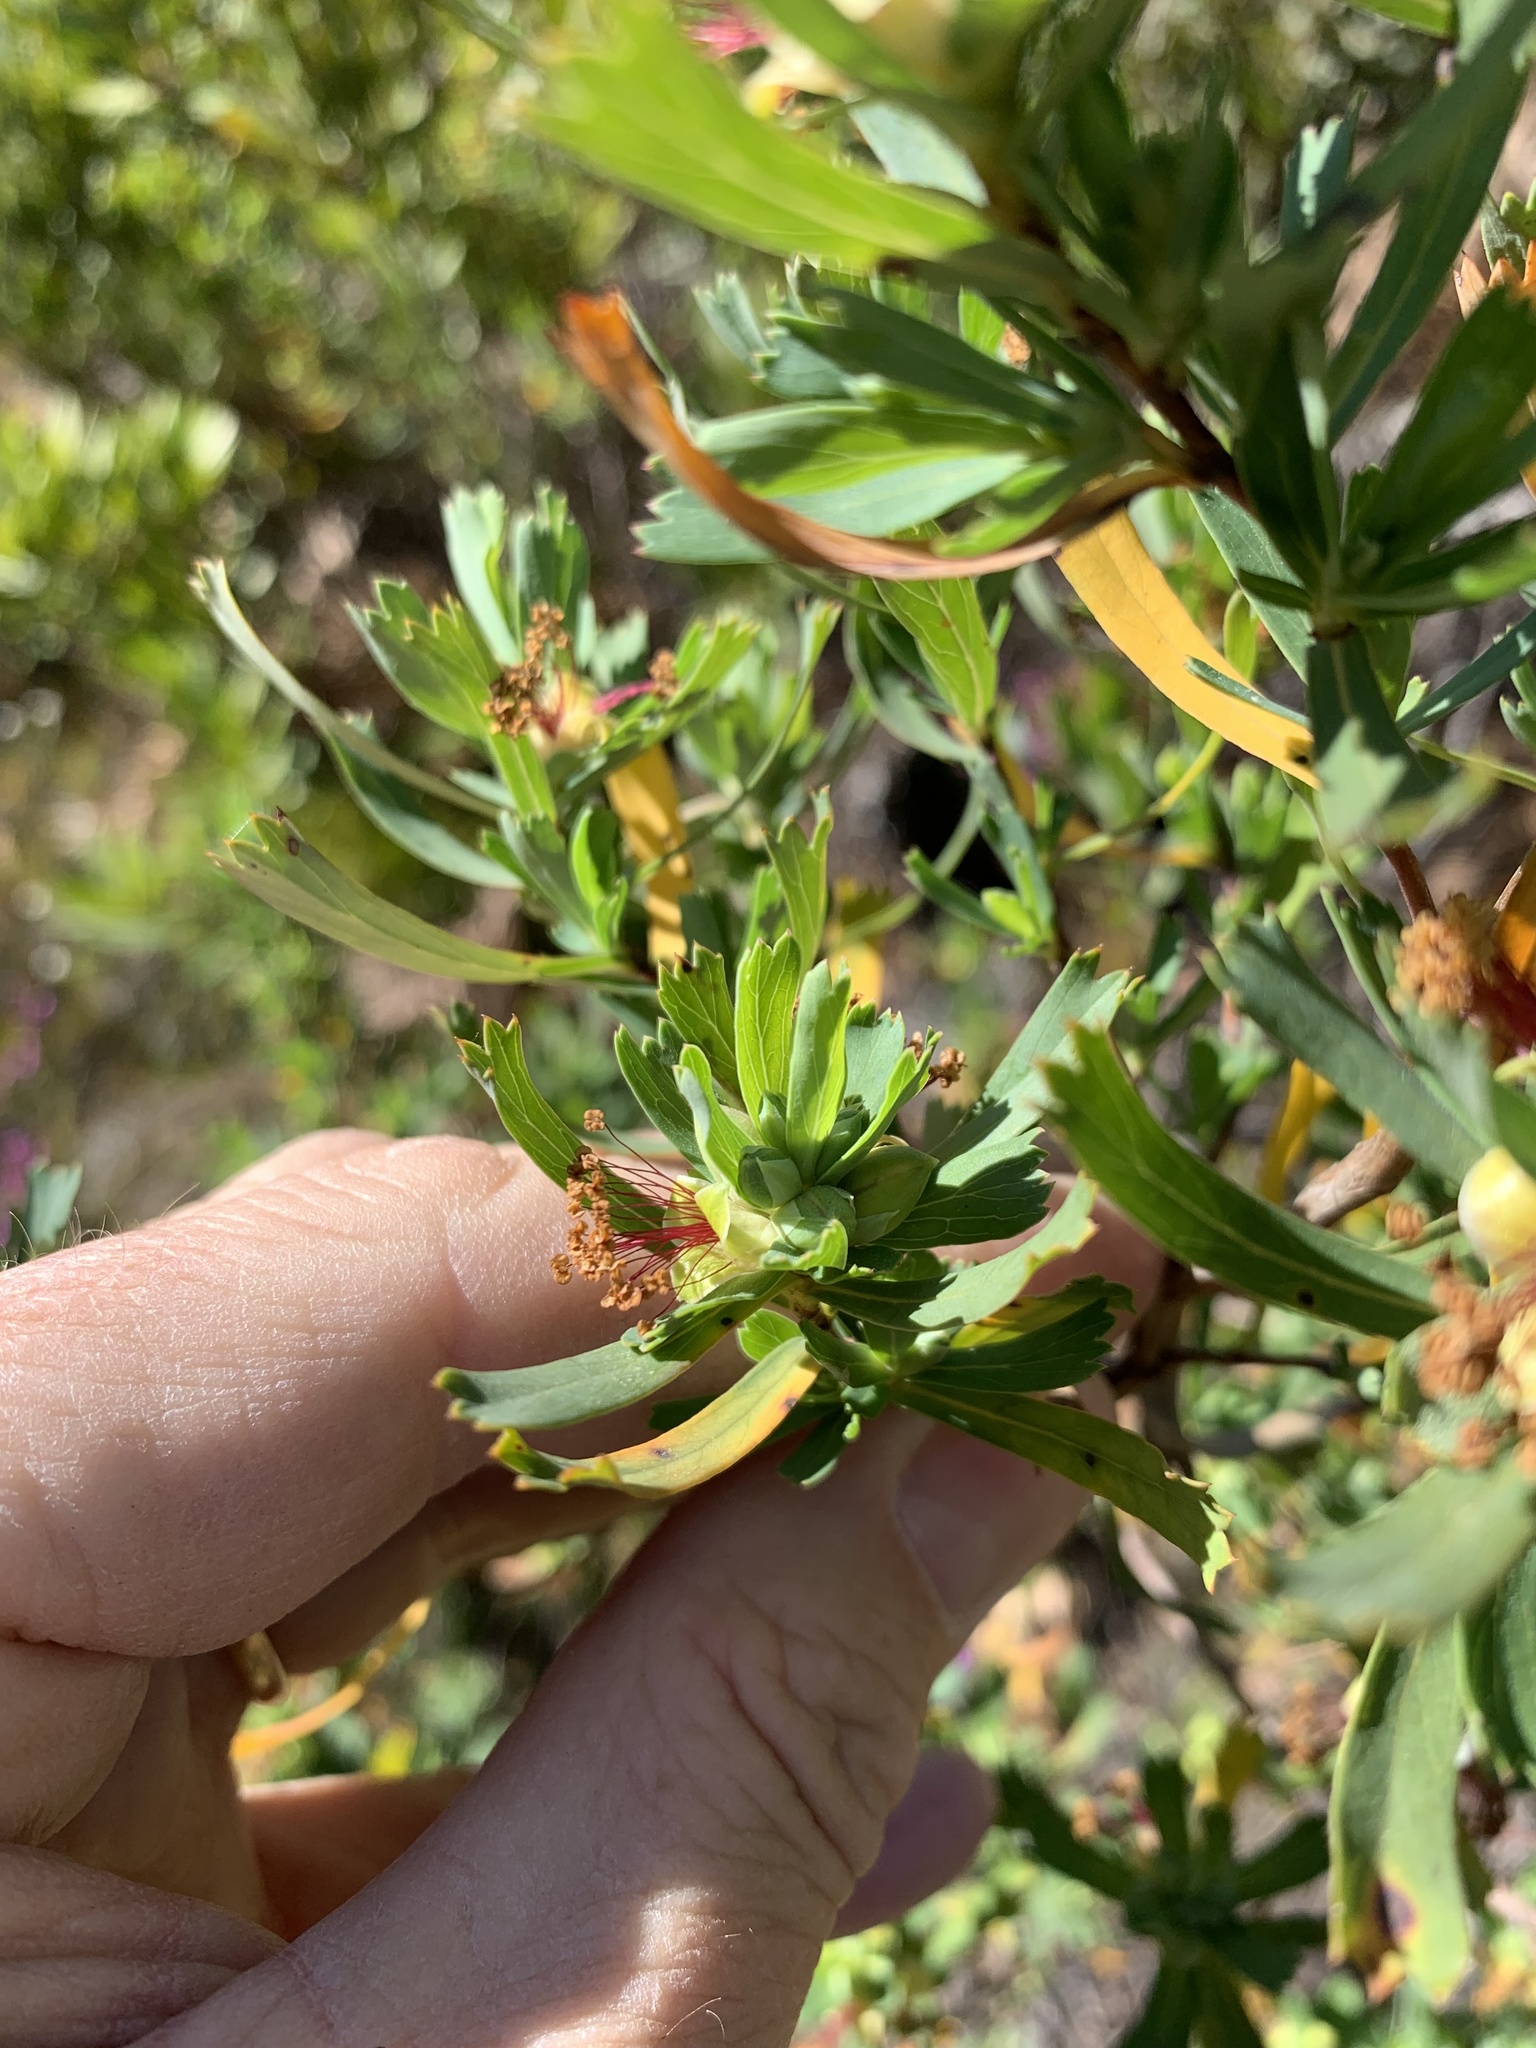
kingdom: Plantae
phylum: Tracheophyta
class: Magnoliopsida
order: Rosales
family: Rosaceae
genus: Cliffortia
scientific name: Cliffortia cuneata
